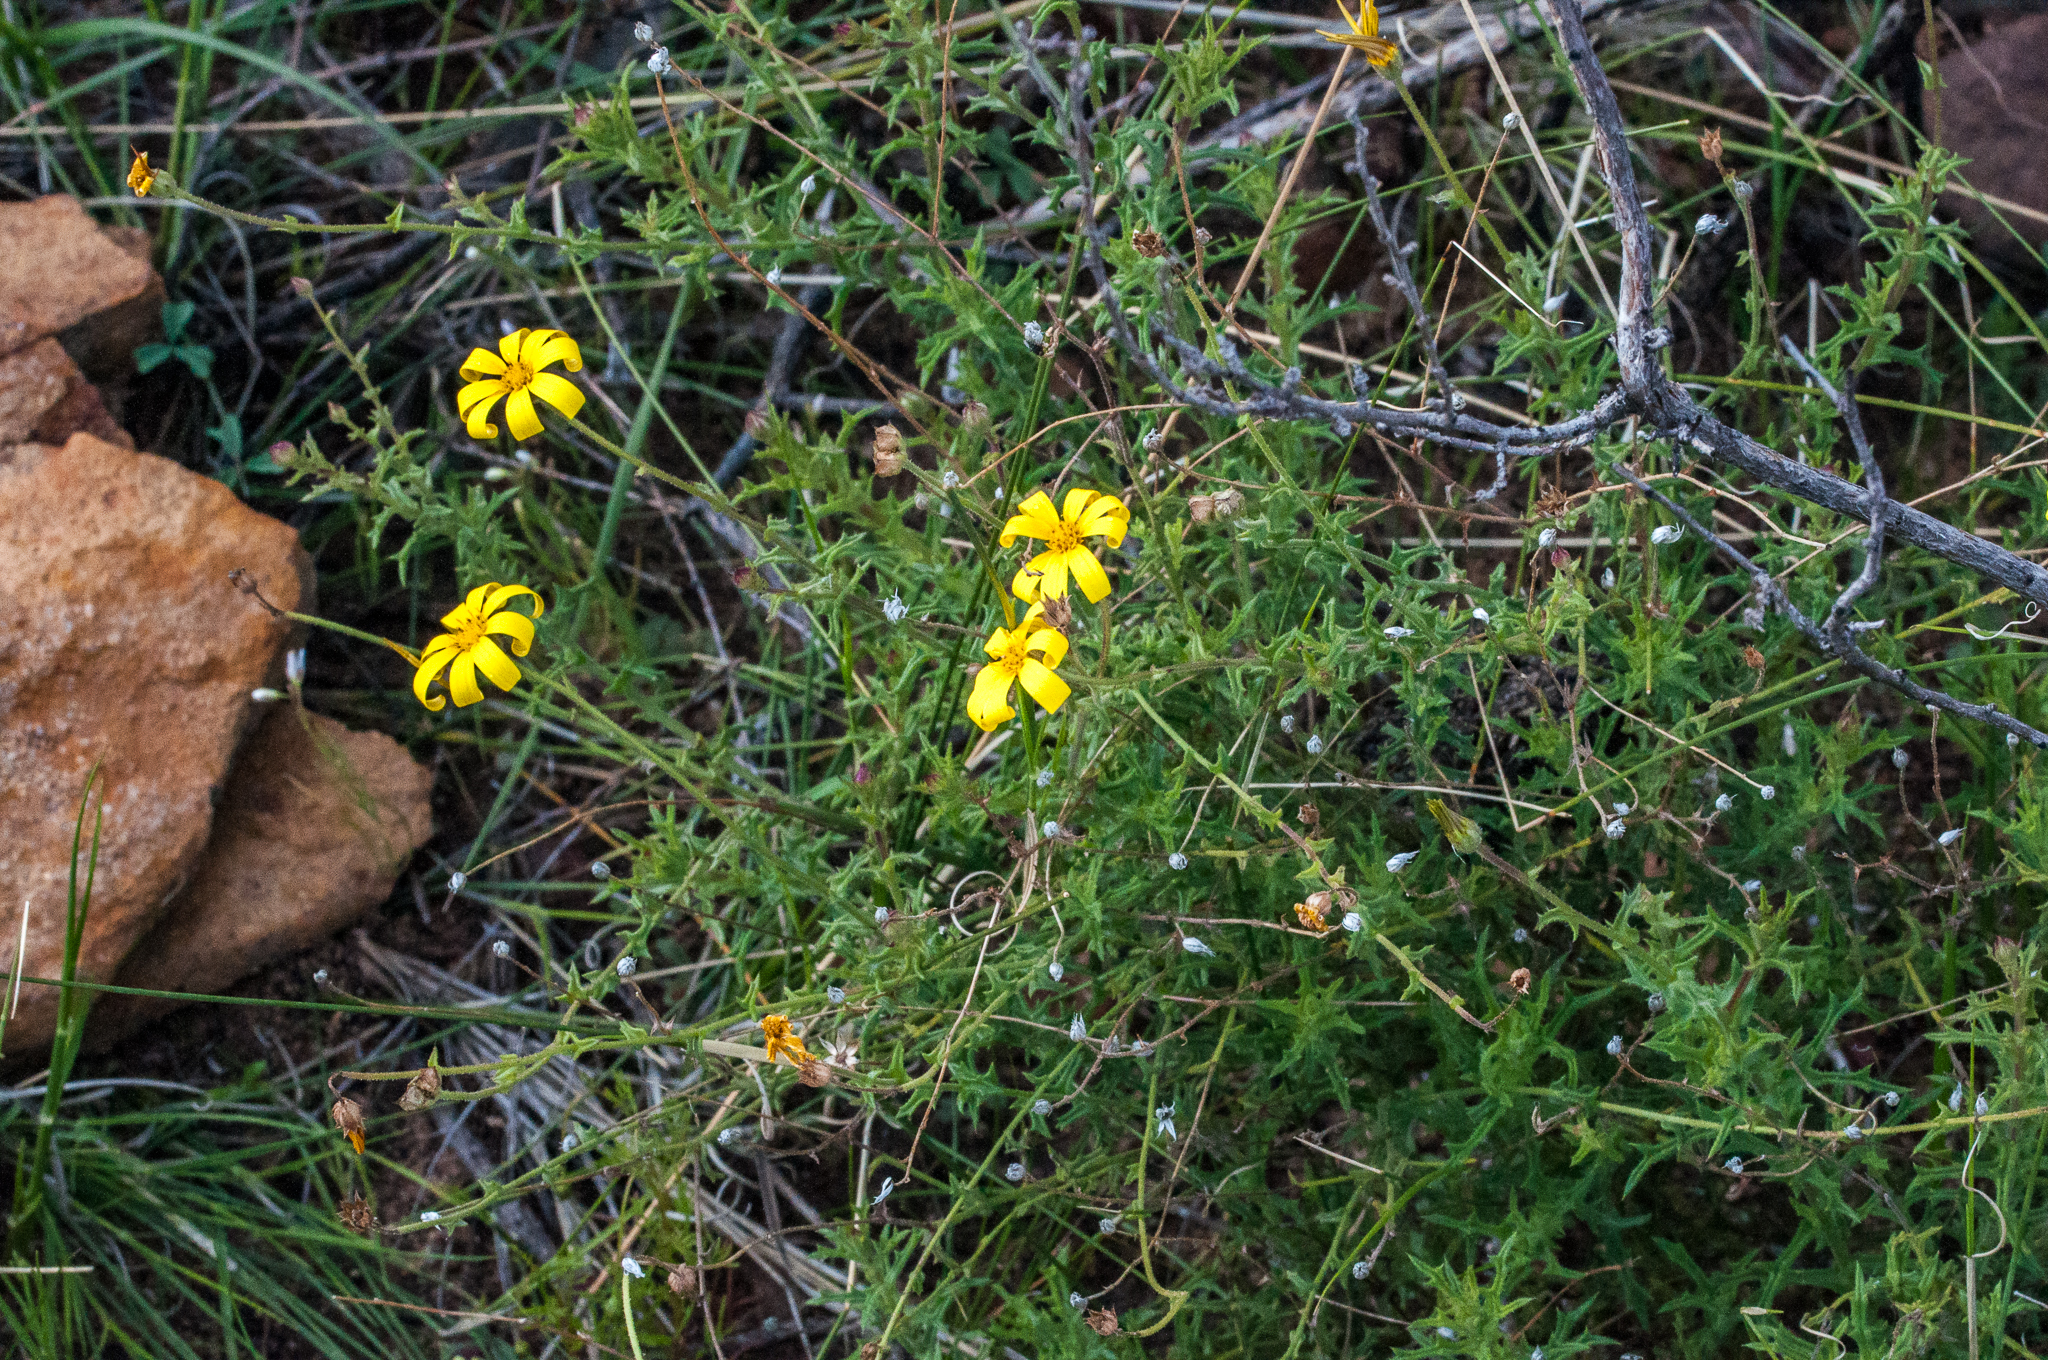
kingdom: Plantae
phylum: Tracheophyta
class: Magnoliopsida
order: Asterales
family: Asteraceae
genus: Osteospermum
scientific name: Osteospermum rigidum
